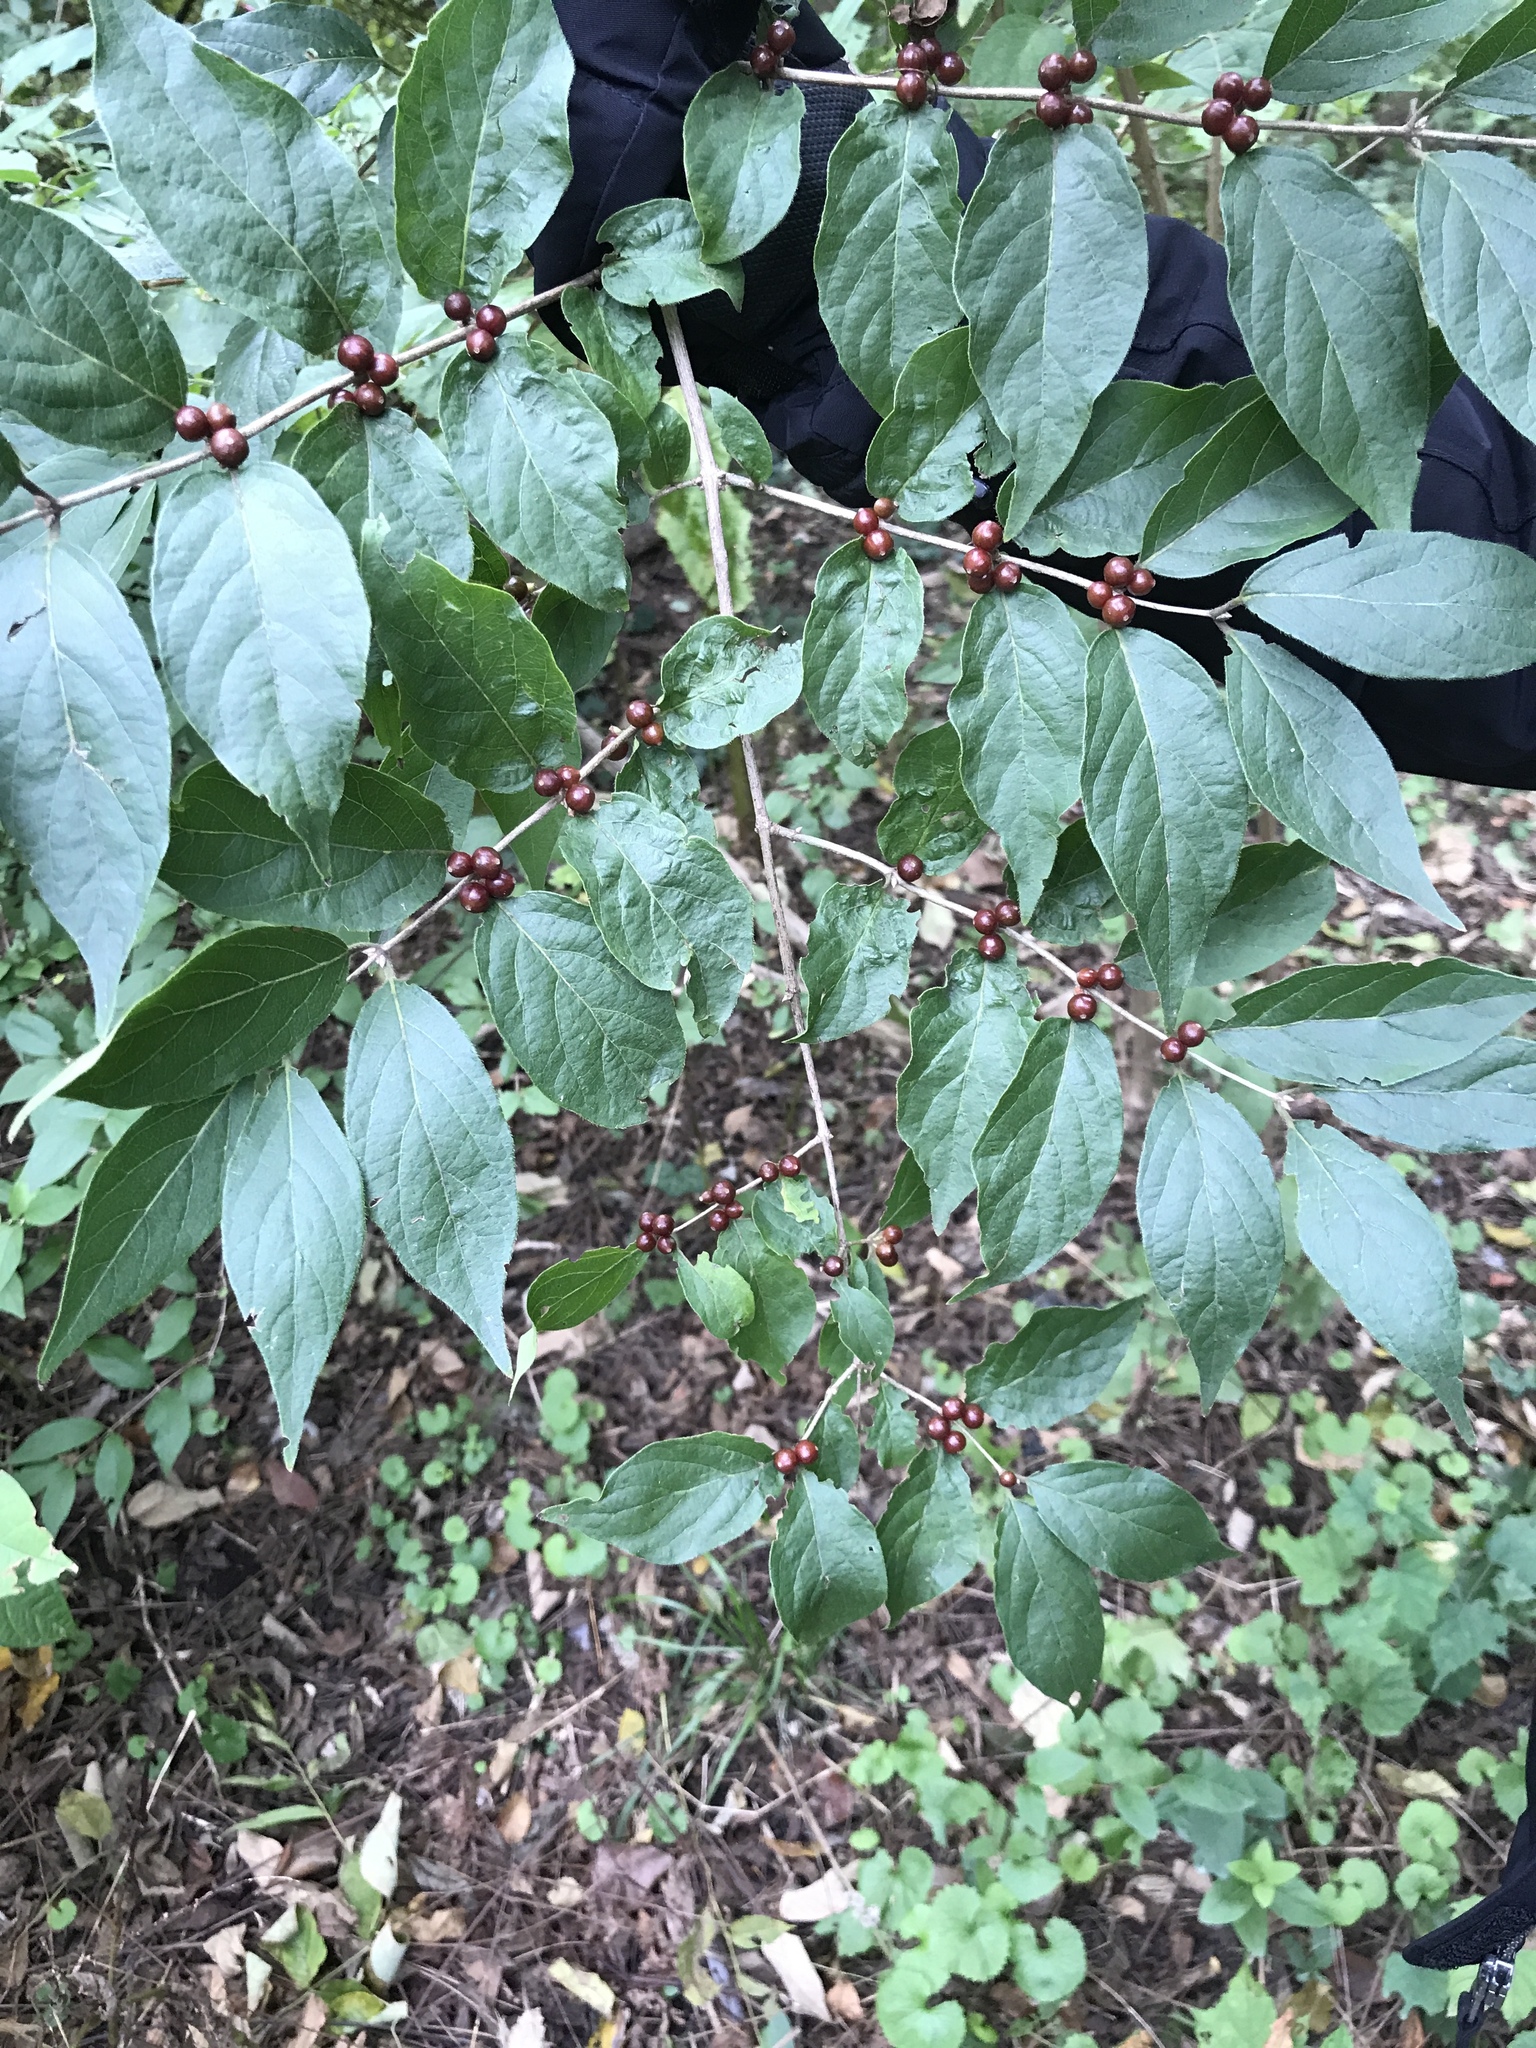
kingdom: Plantae
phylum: Tracheophyta
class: Magnoliopsida
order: Dipsacales
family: Caprifoliaceae
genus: Lonicera
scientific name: Lonicera maackii
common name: Amur honeysuckle
